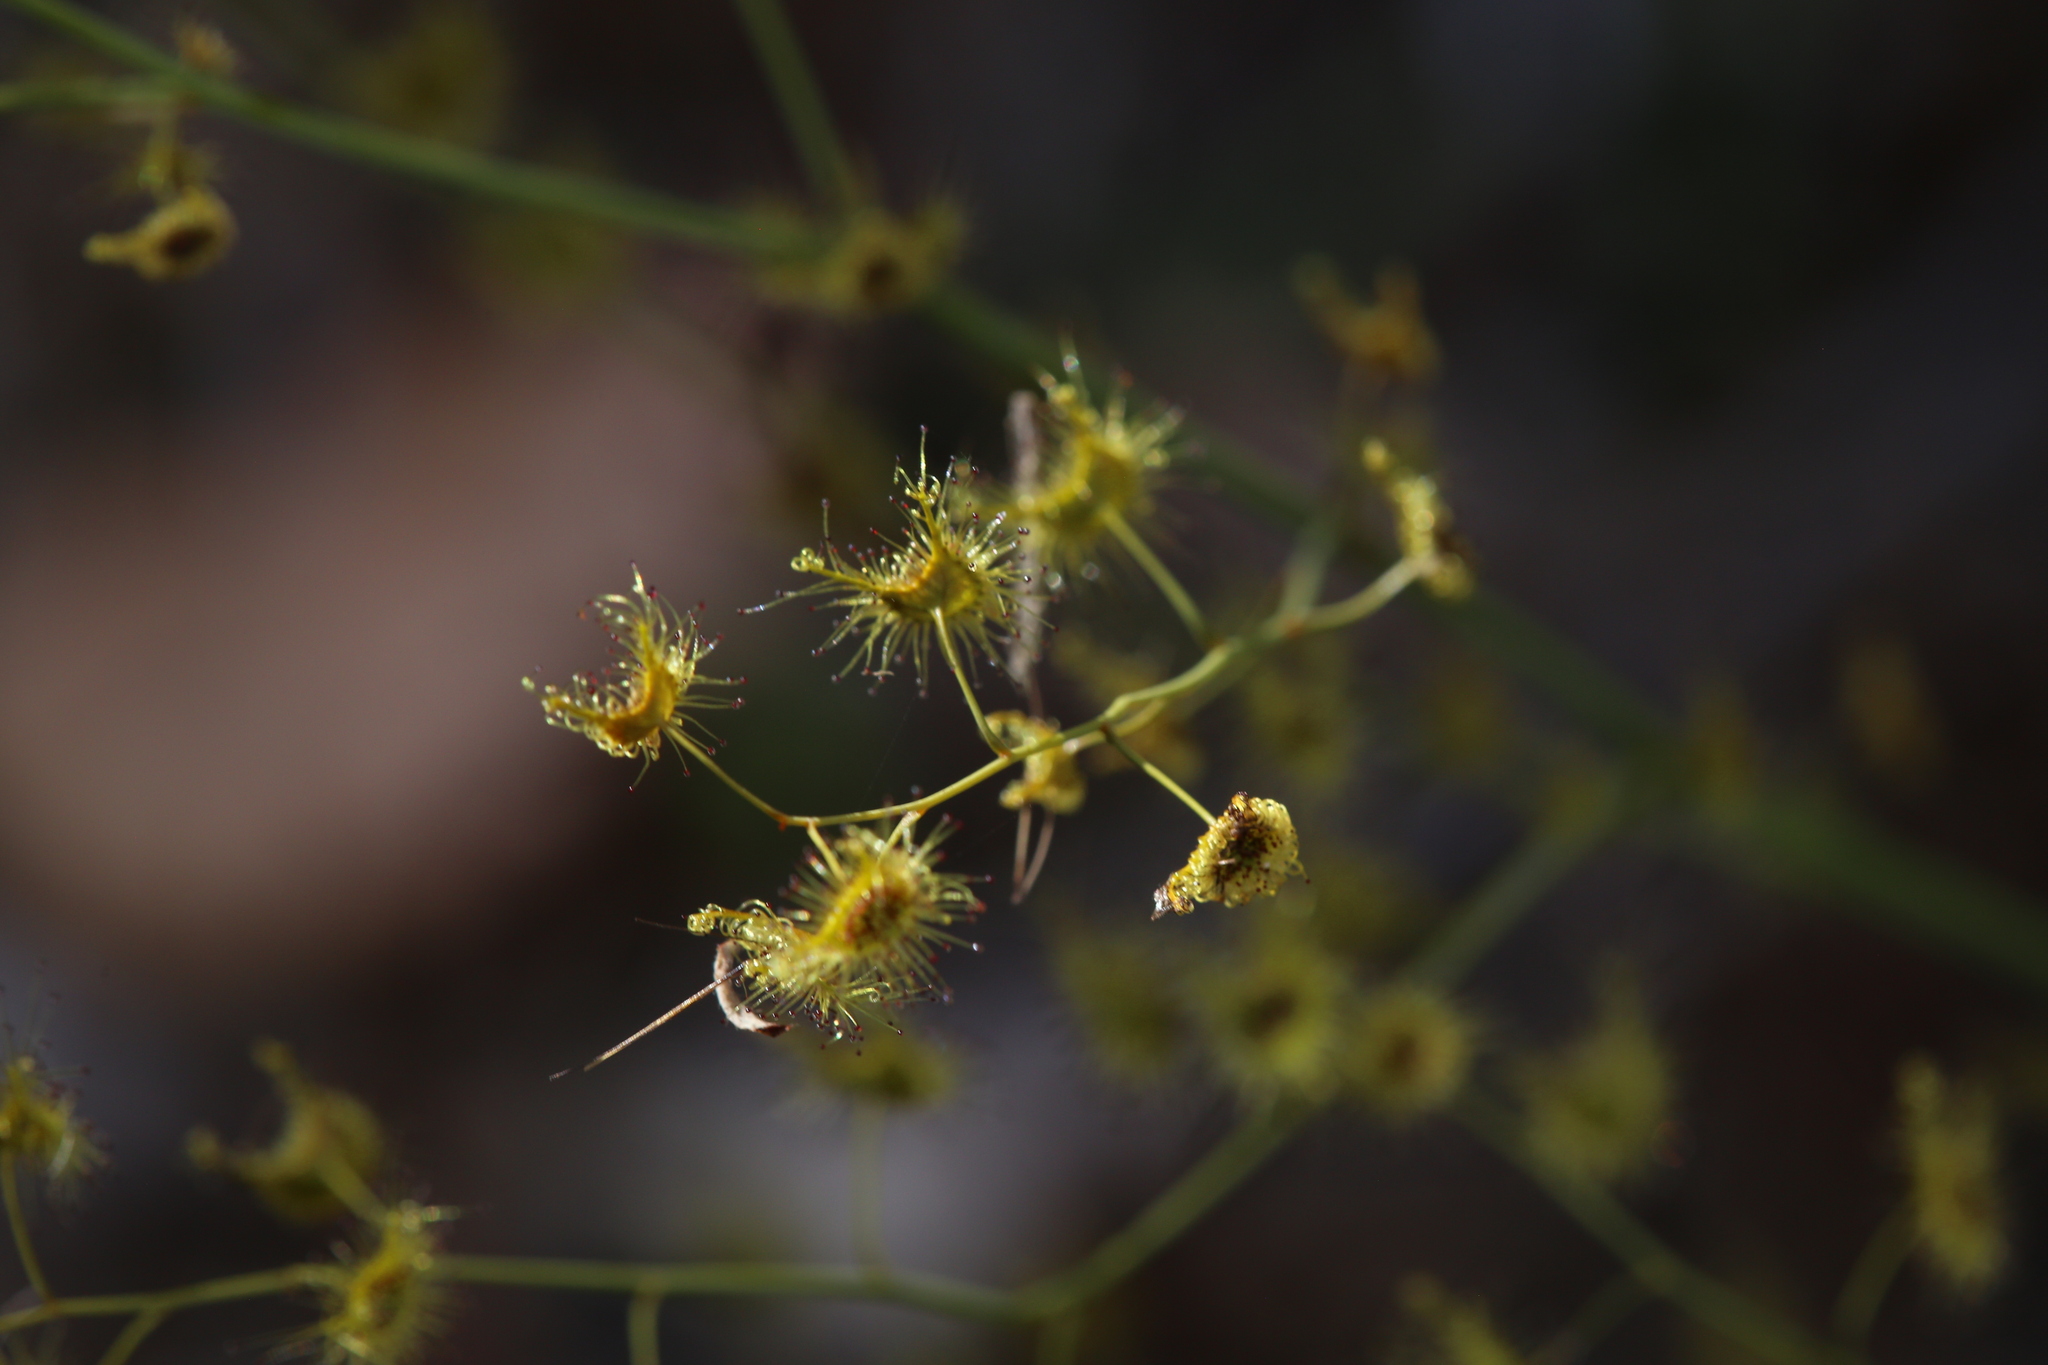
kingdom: Plantae
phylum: Tracheophyta
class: Magnoliopsida
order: Caryophyllales
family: Droseraceae
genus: Drosera
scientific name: Drosera gigantea
